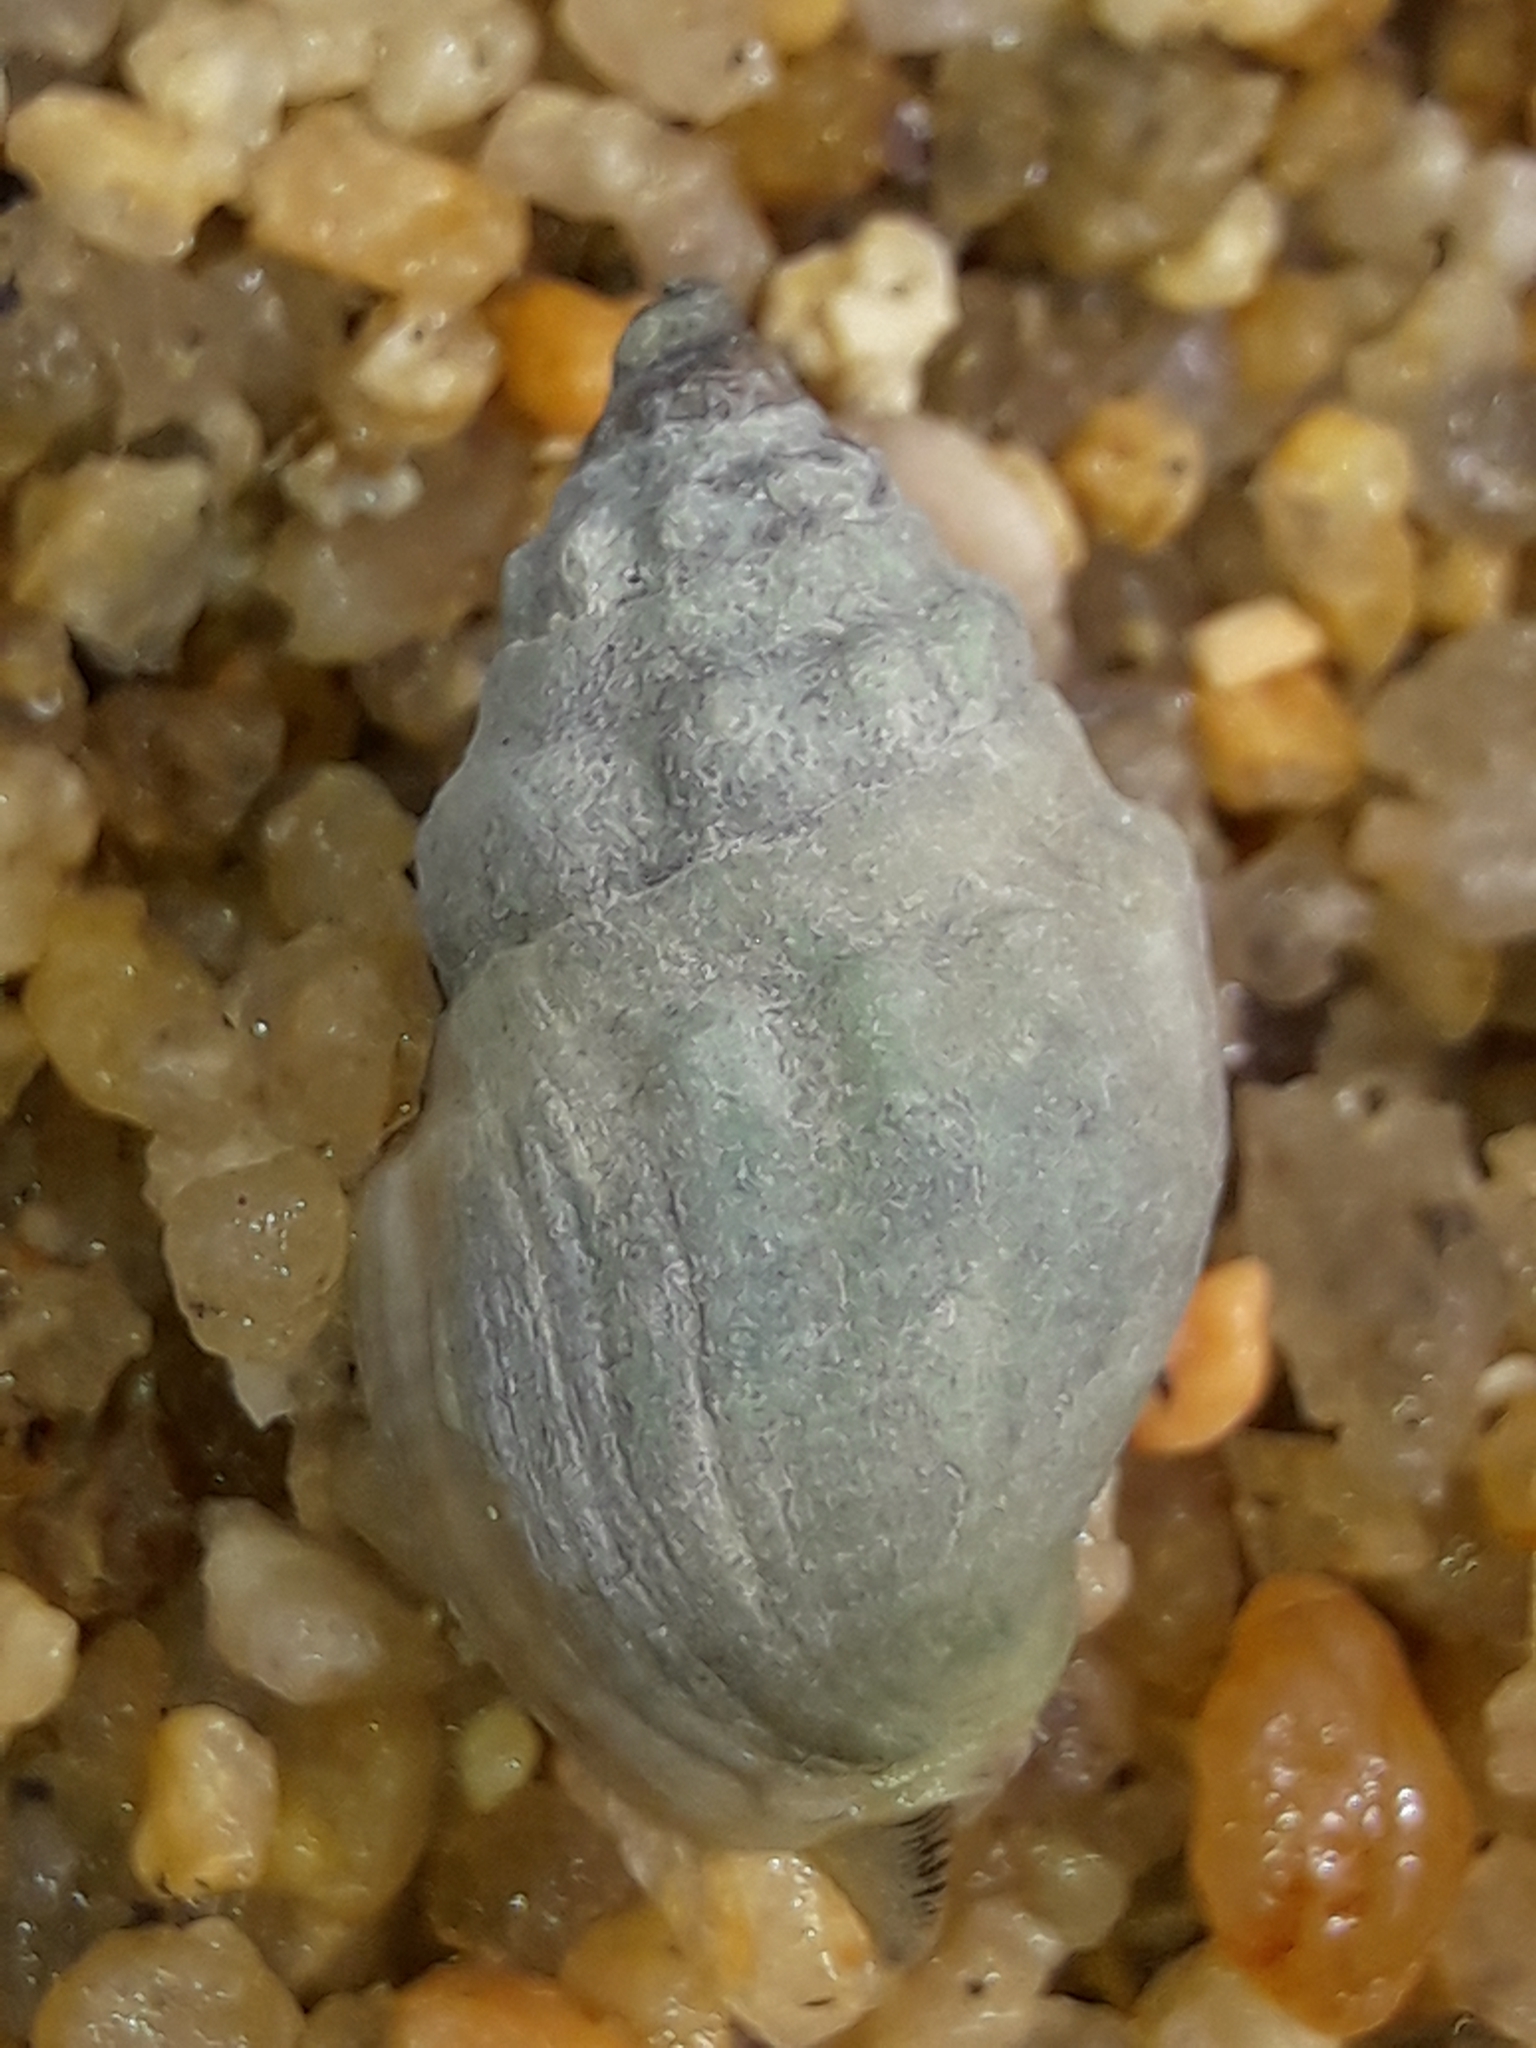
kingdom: Animalia
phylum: Mollusca
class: Gastropoda
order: Neogastropoda
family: Cominellidae
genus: Cominella
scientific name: Cominella glandiformis
